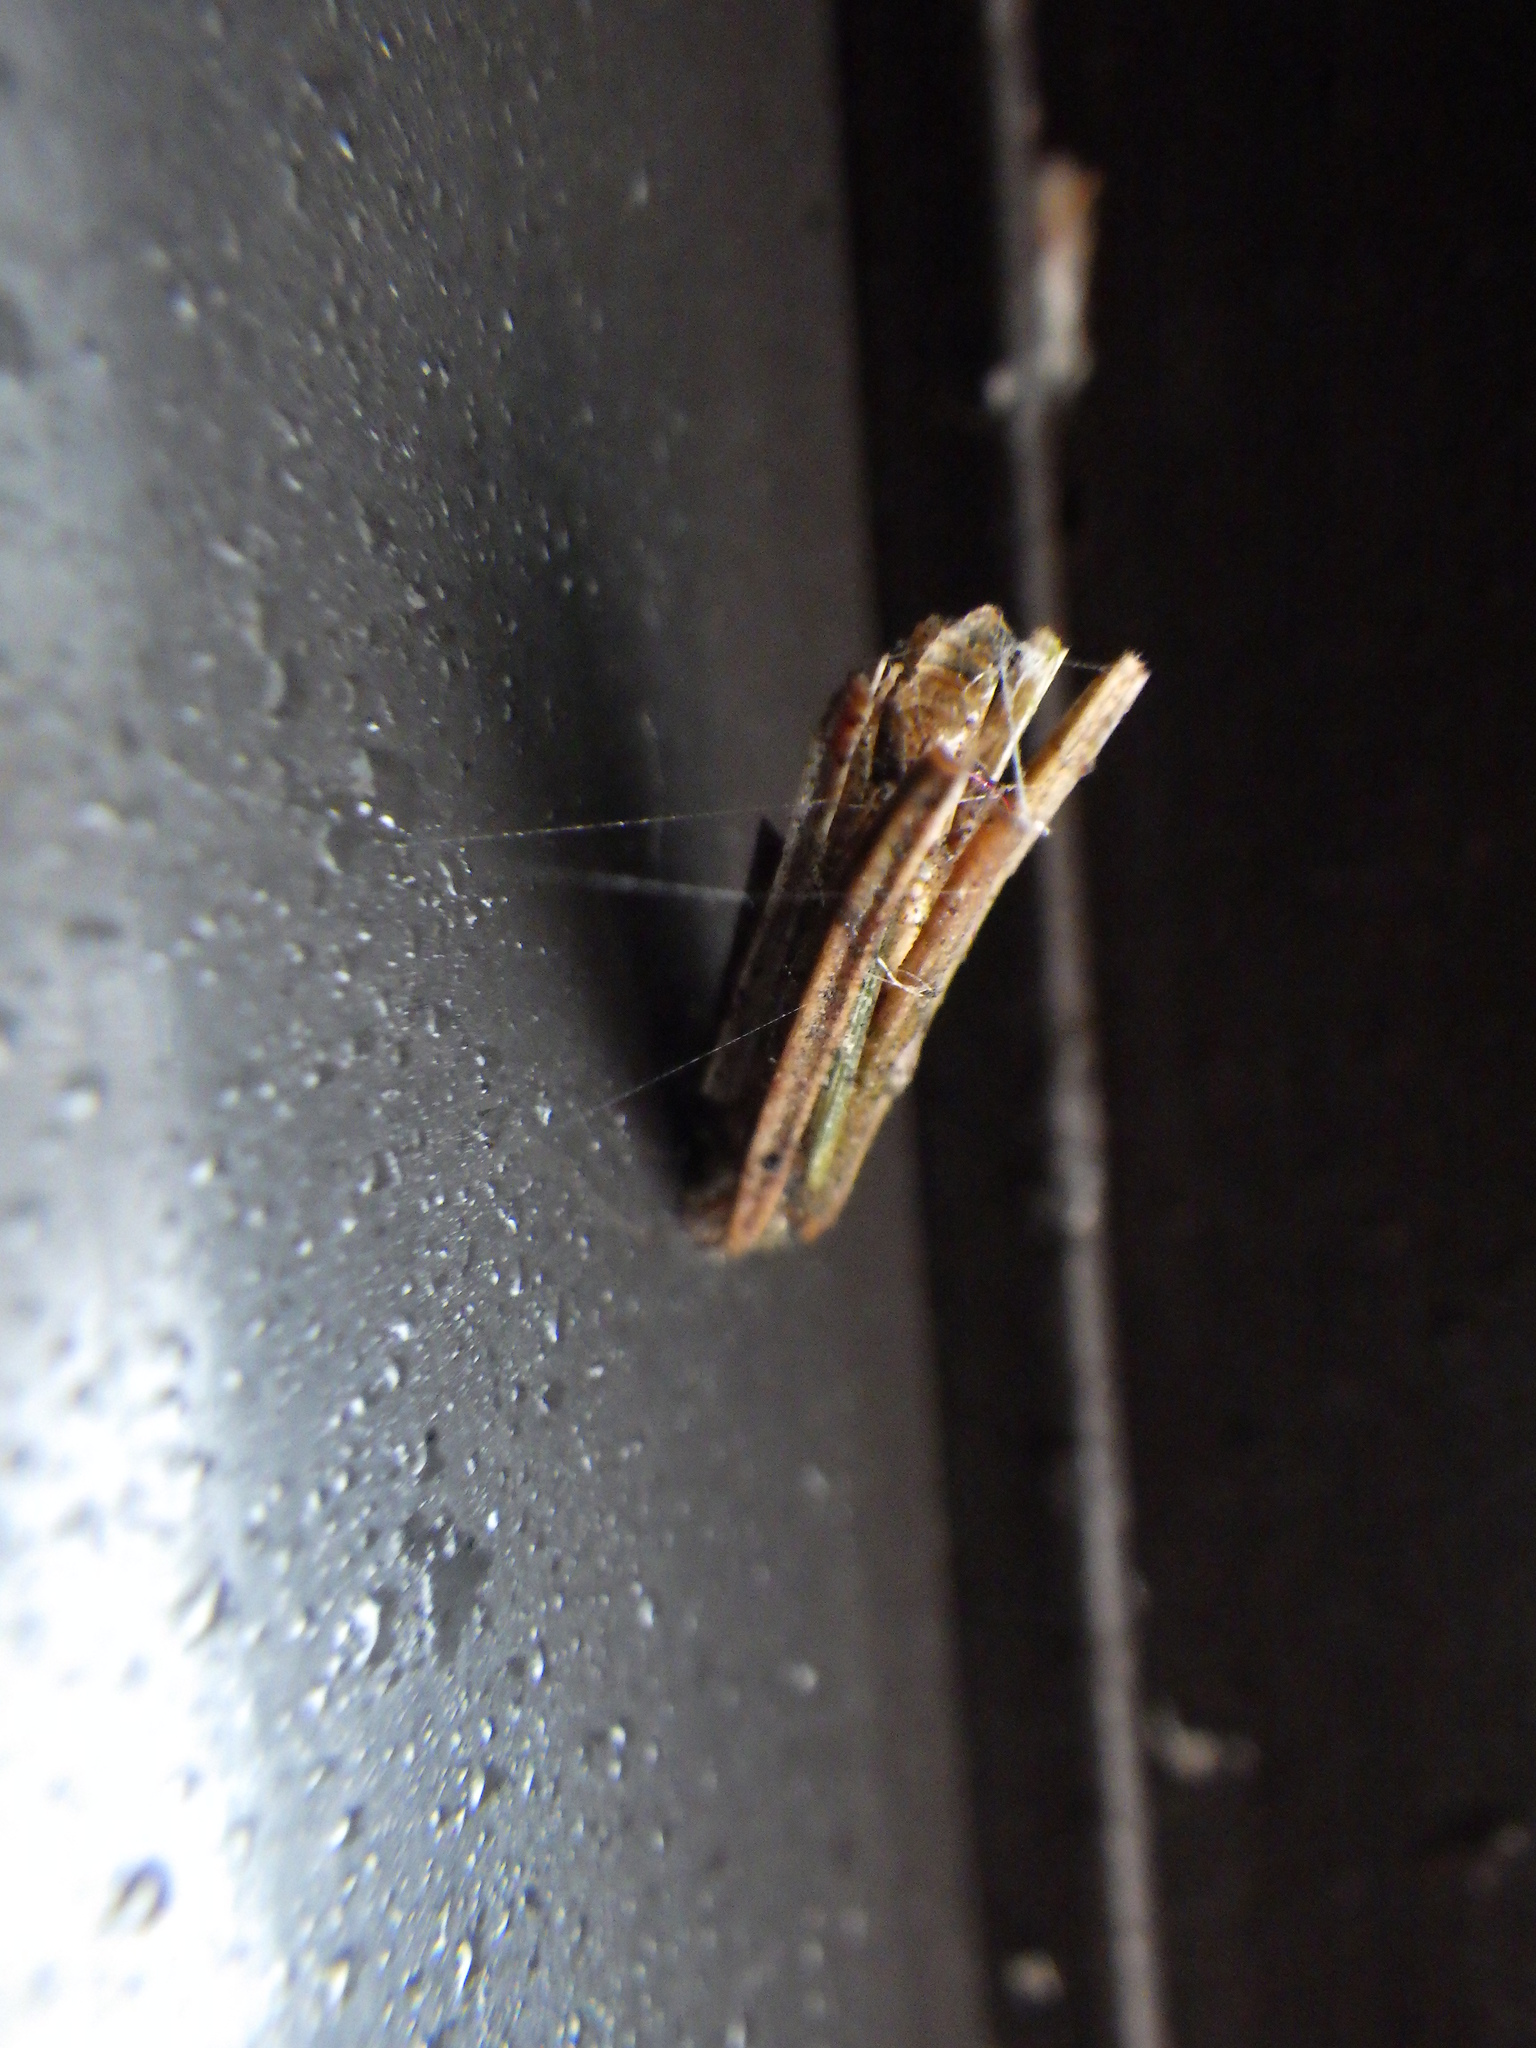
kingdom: Animalia
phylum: Arthropoda
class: Insecta
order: Lepidoptera
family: Psychidae
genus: Psyche
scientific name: Psyche casta
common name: Common sweep
